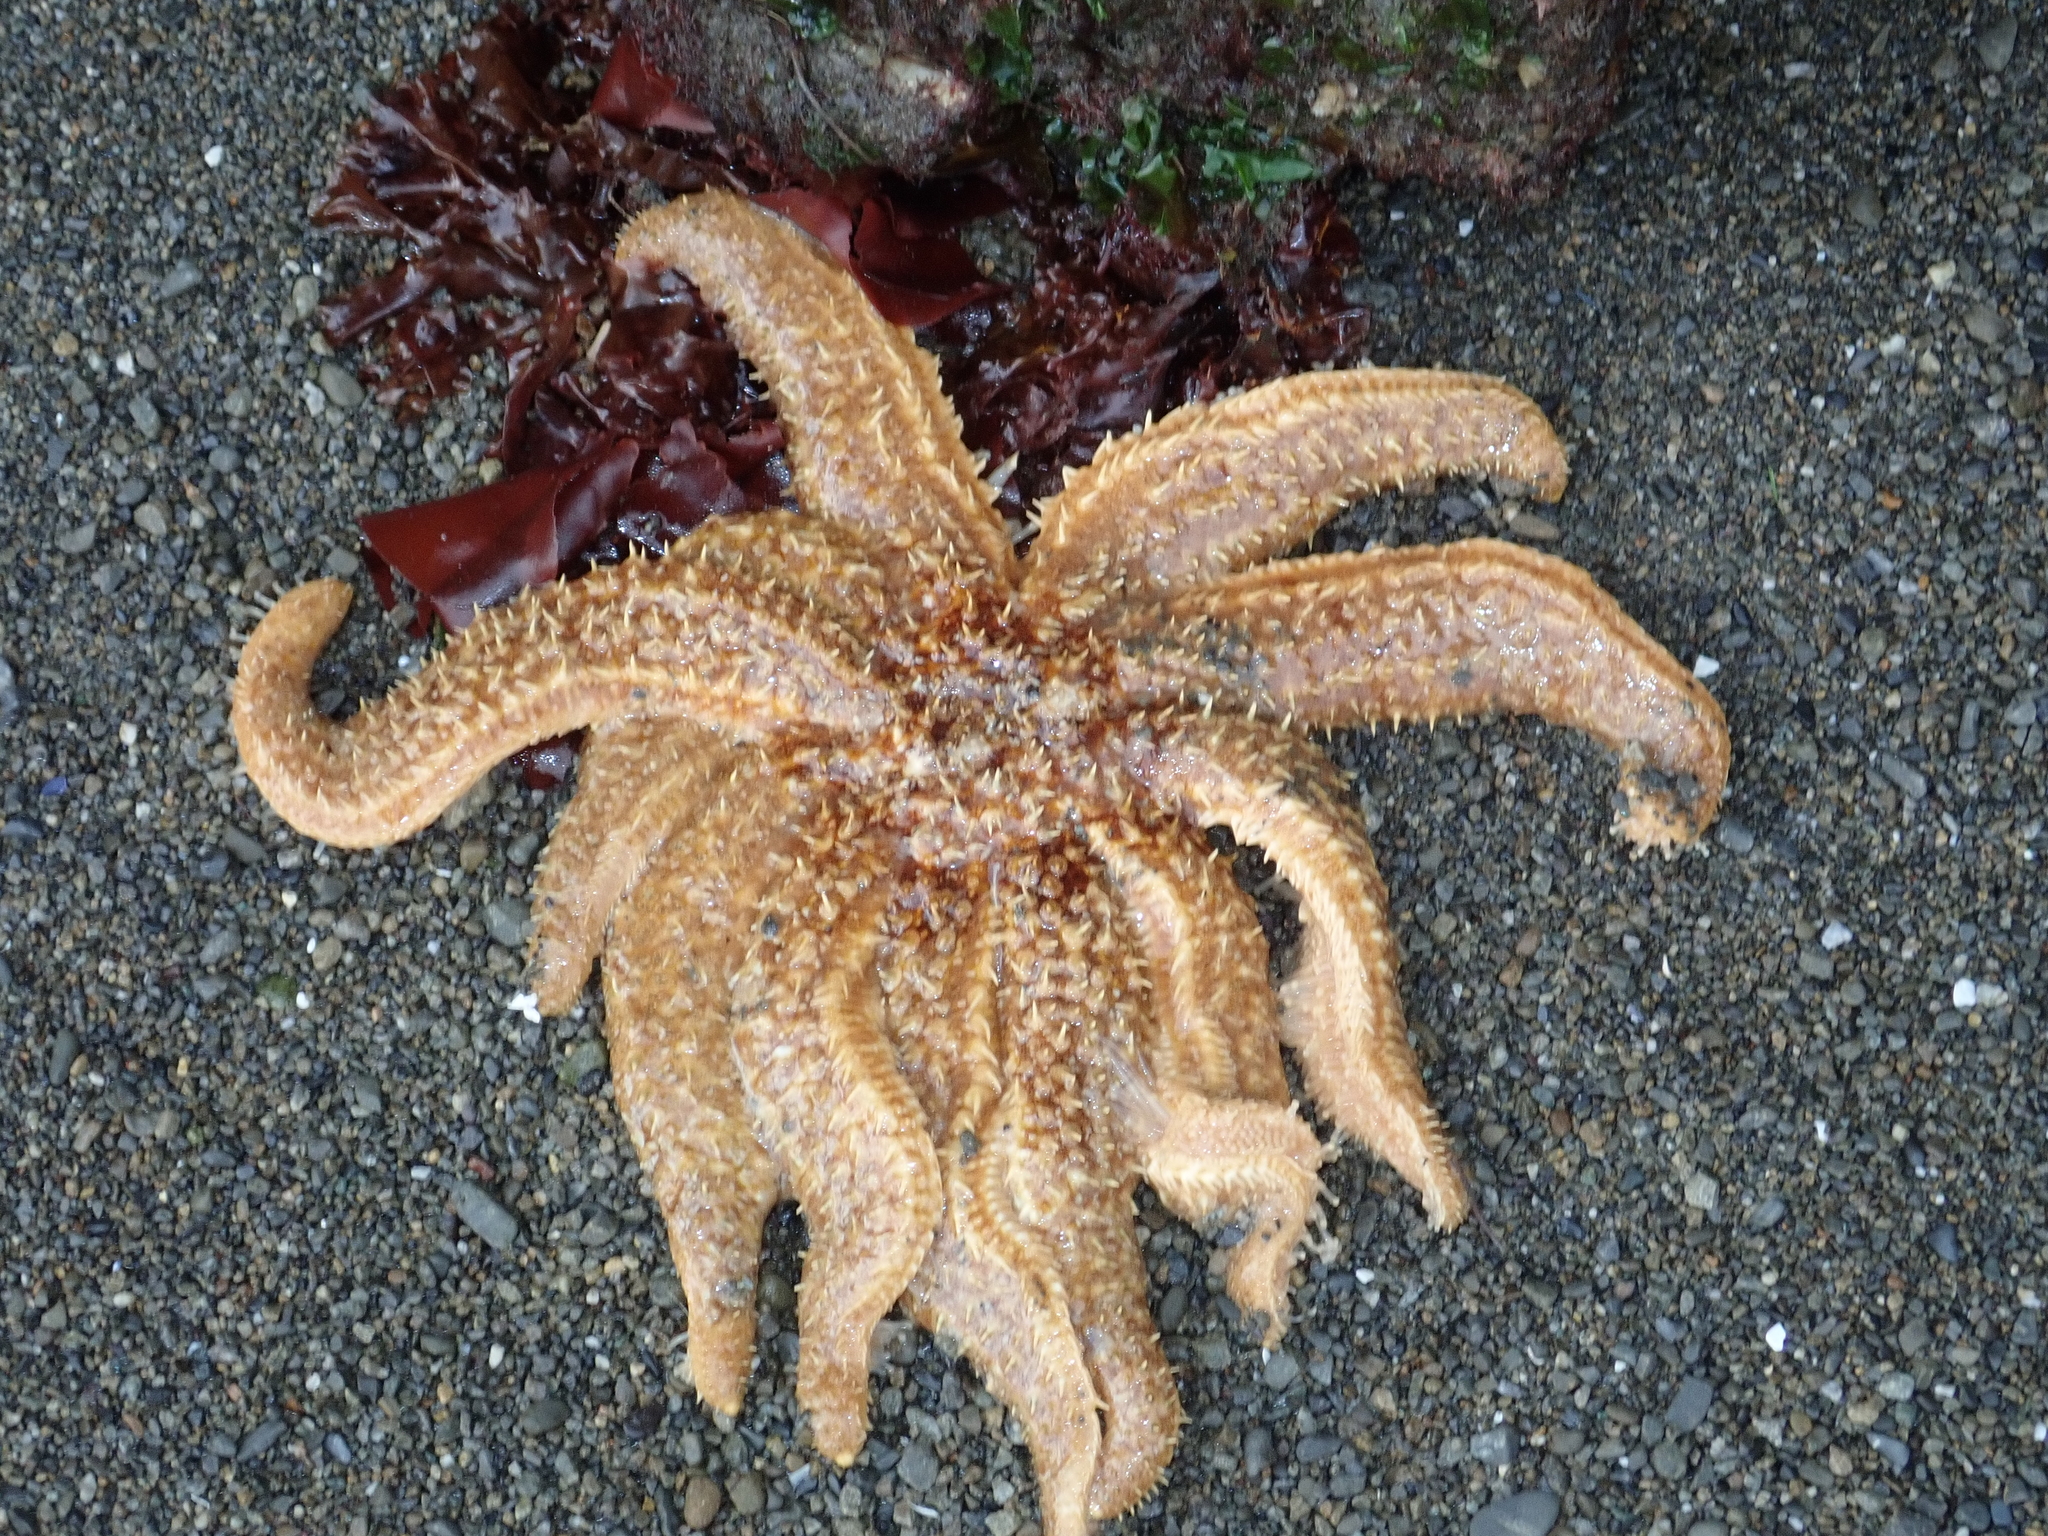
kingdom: Animalia
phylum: Echinodermata
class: Asteroidea
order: Forcipulatida
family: Asteriidae
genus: Coscinasterias
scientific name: Coscinasterias muricata
